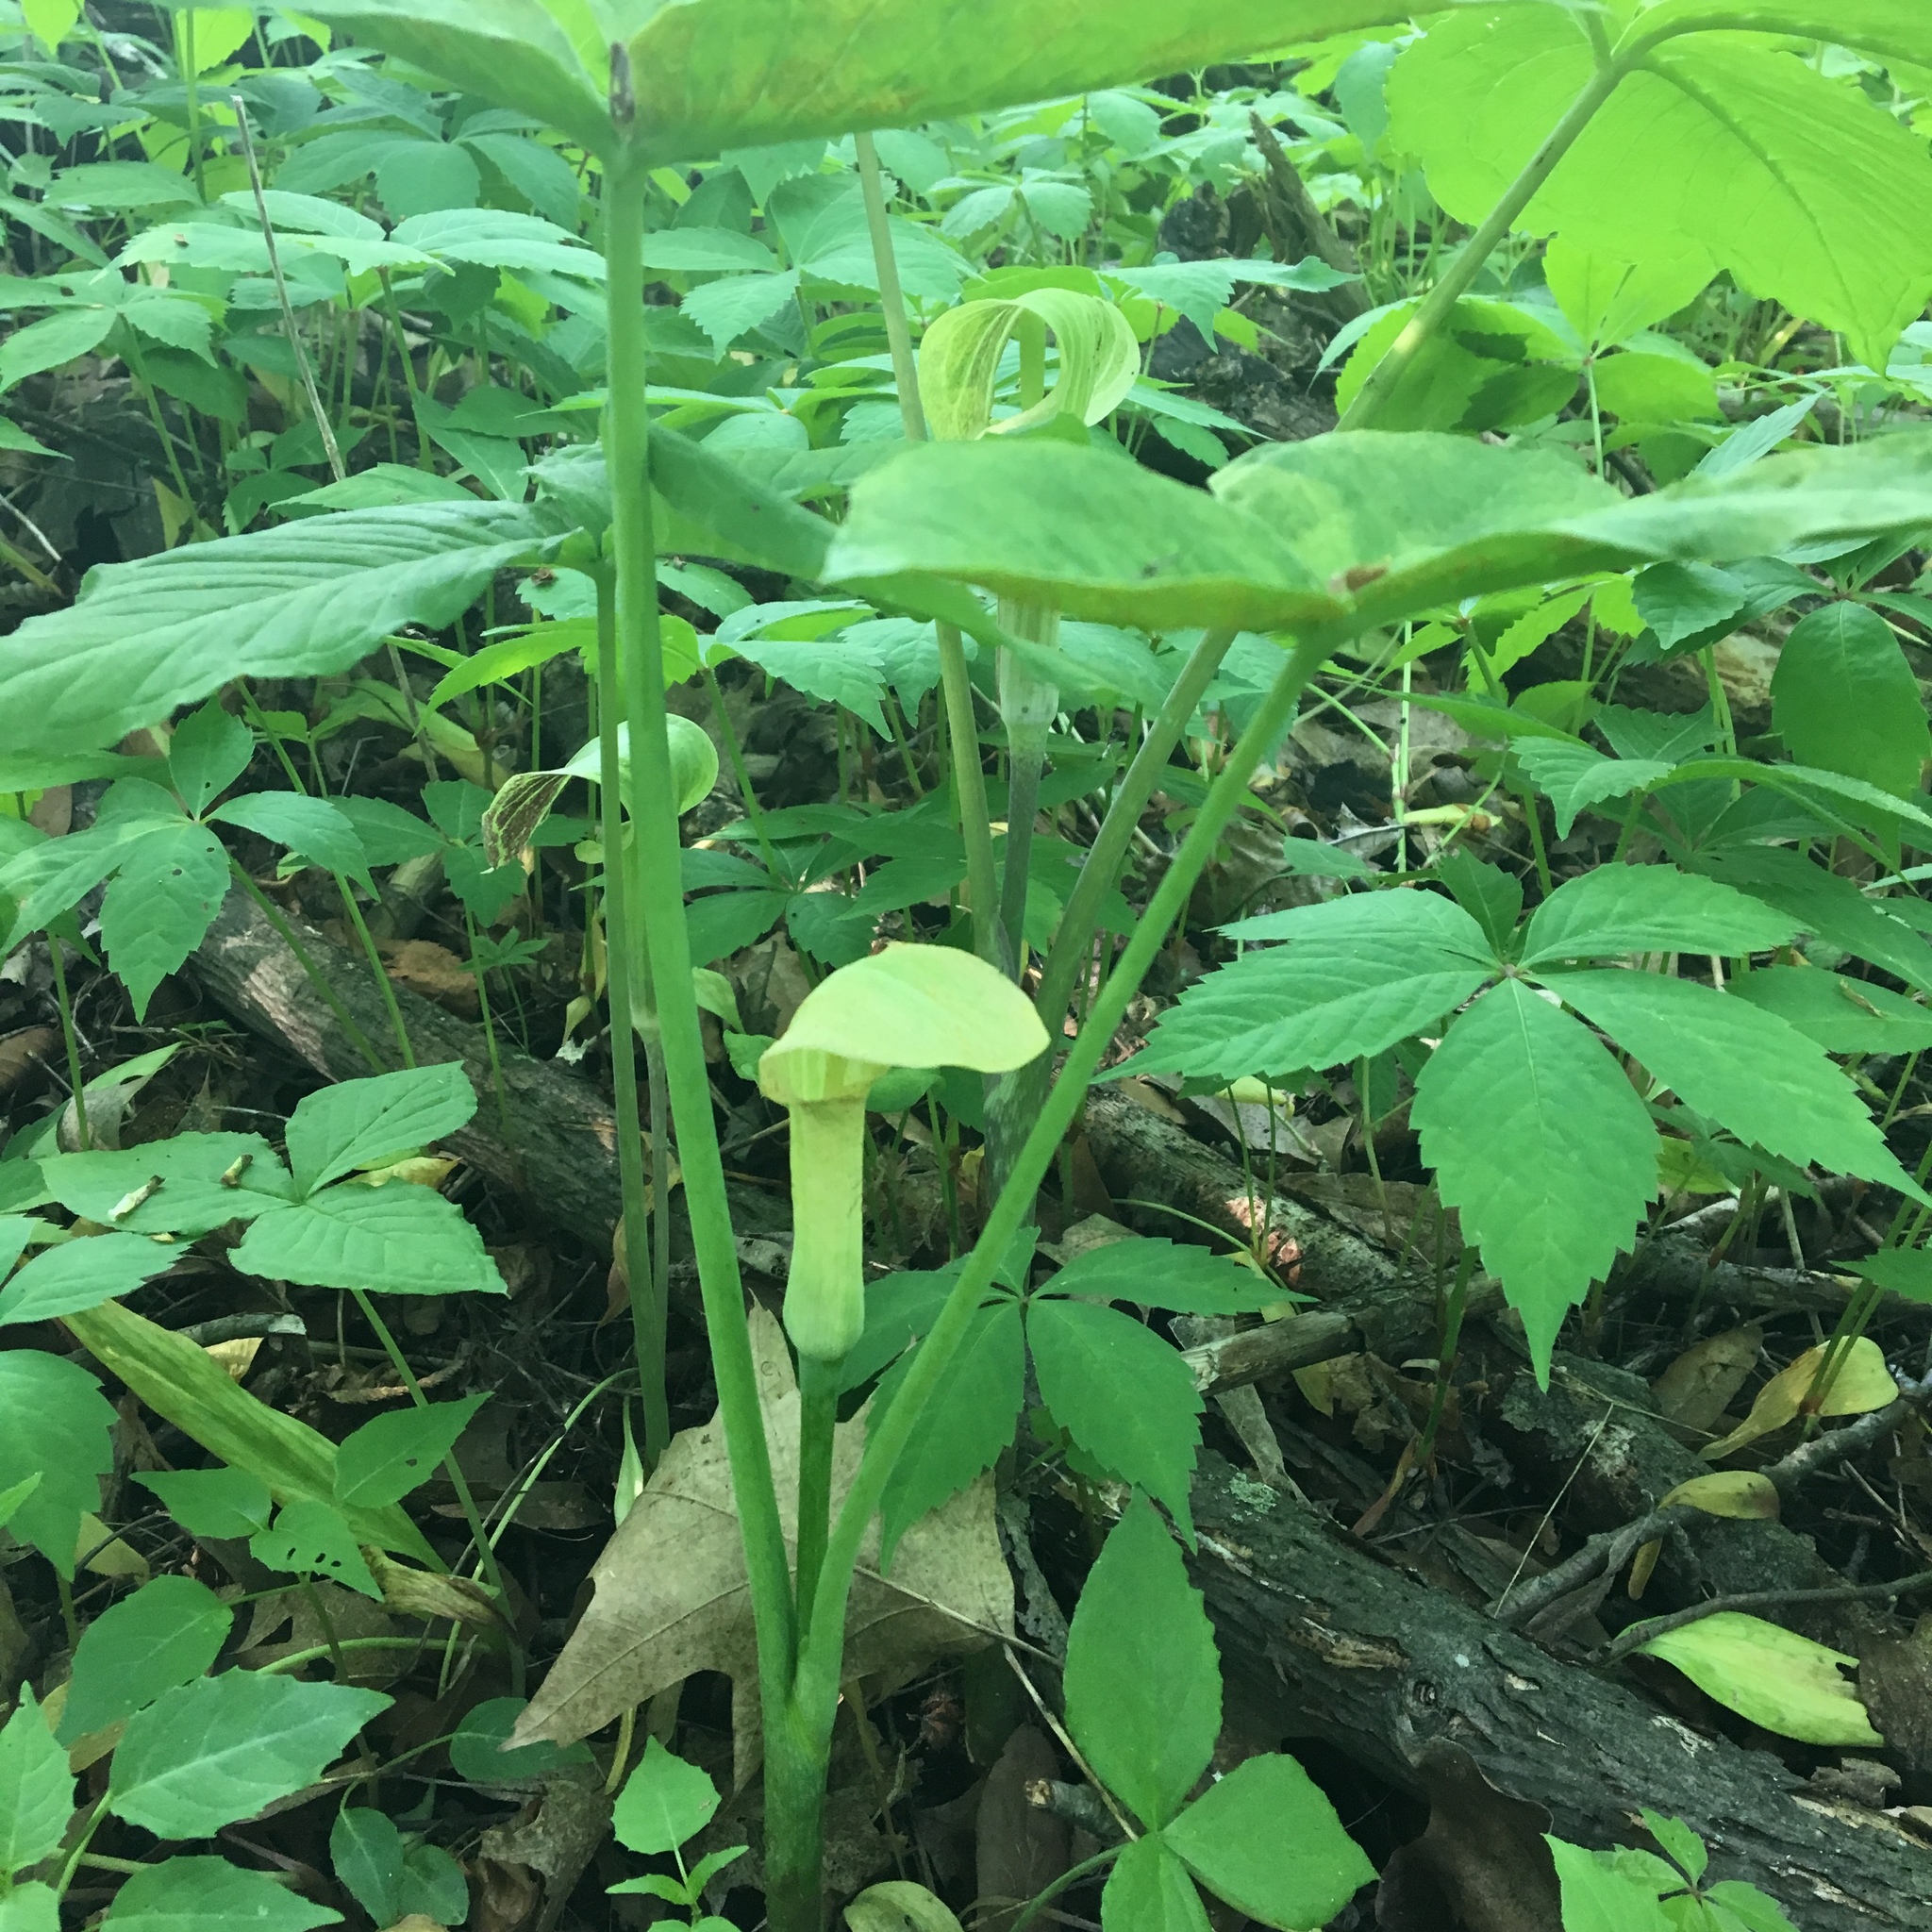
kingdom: Plantae
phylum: Tracheophyta
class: Liliopsida
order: Alismatales
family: Araceae
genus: Arisaema
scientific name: Arisaema triphyllum
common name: Jack-in-the-pulpit
